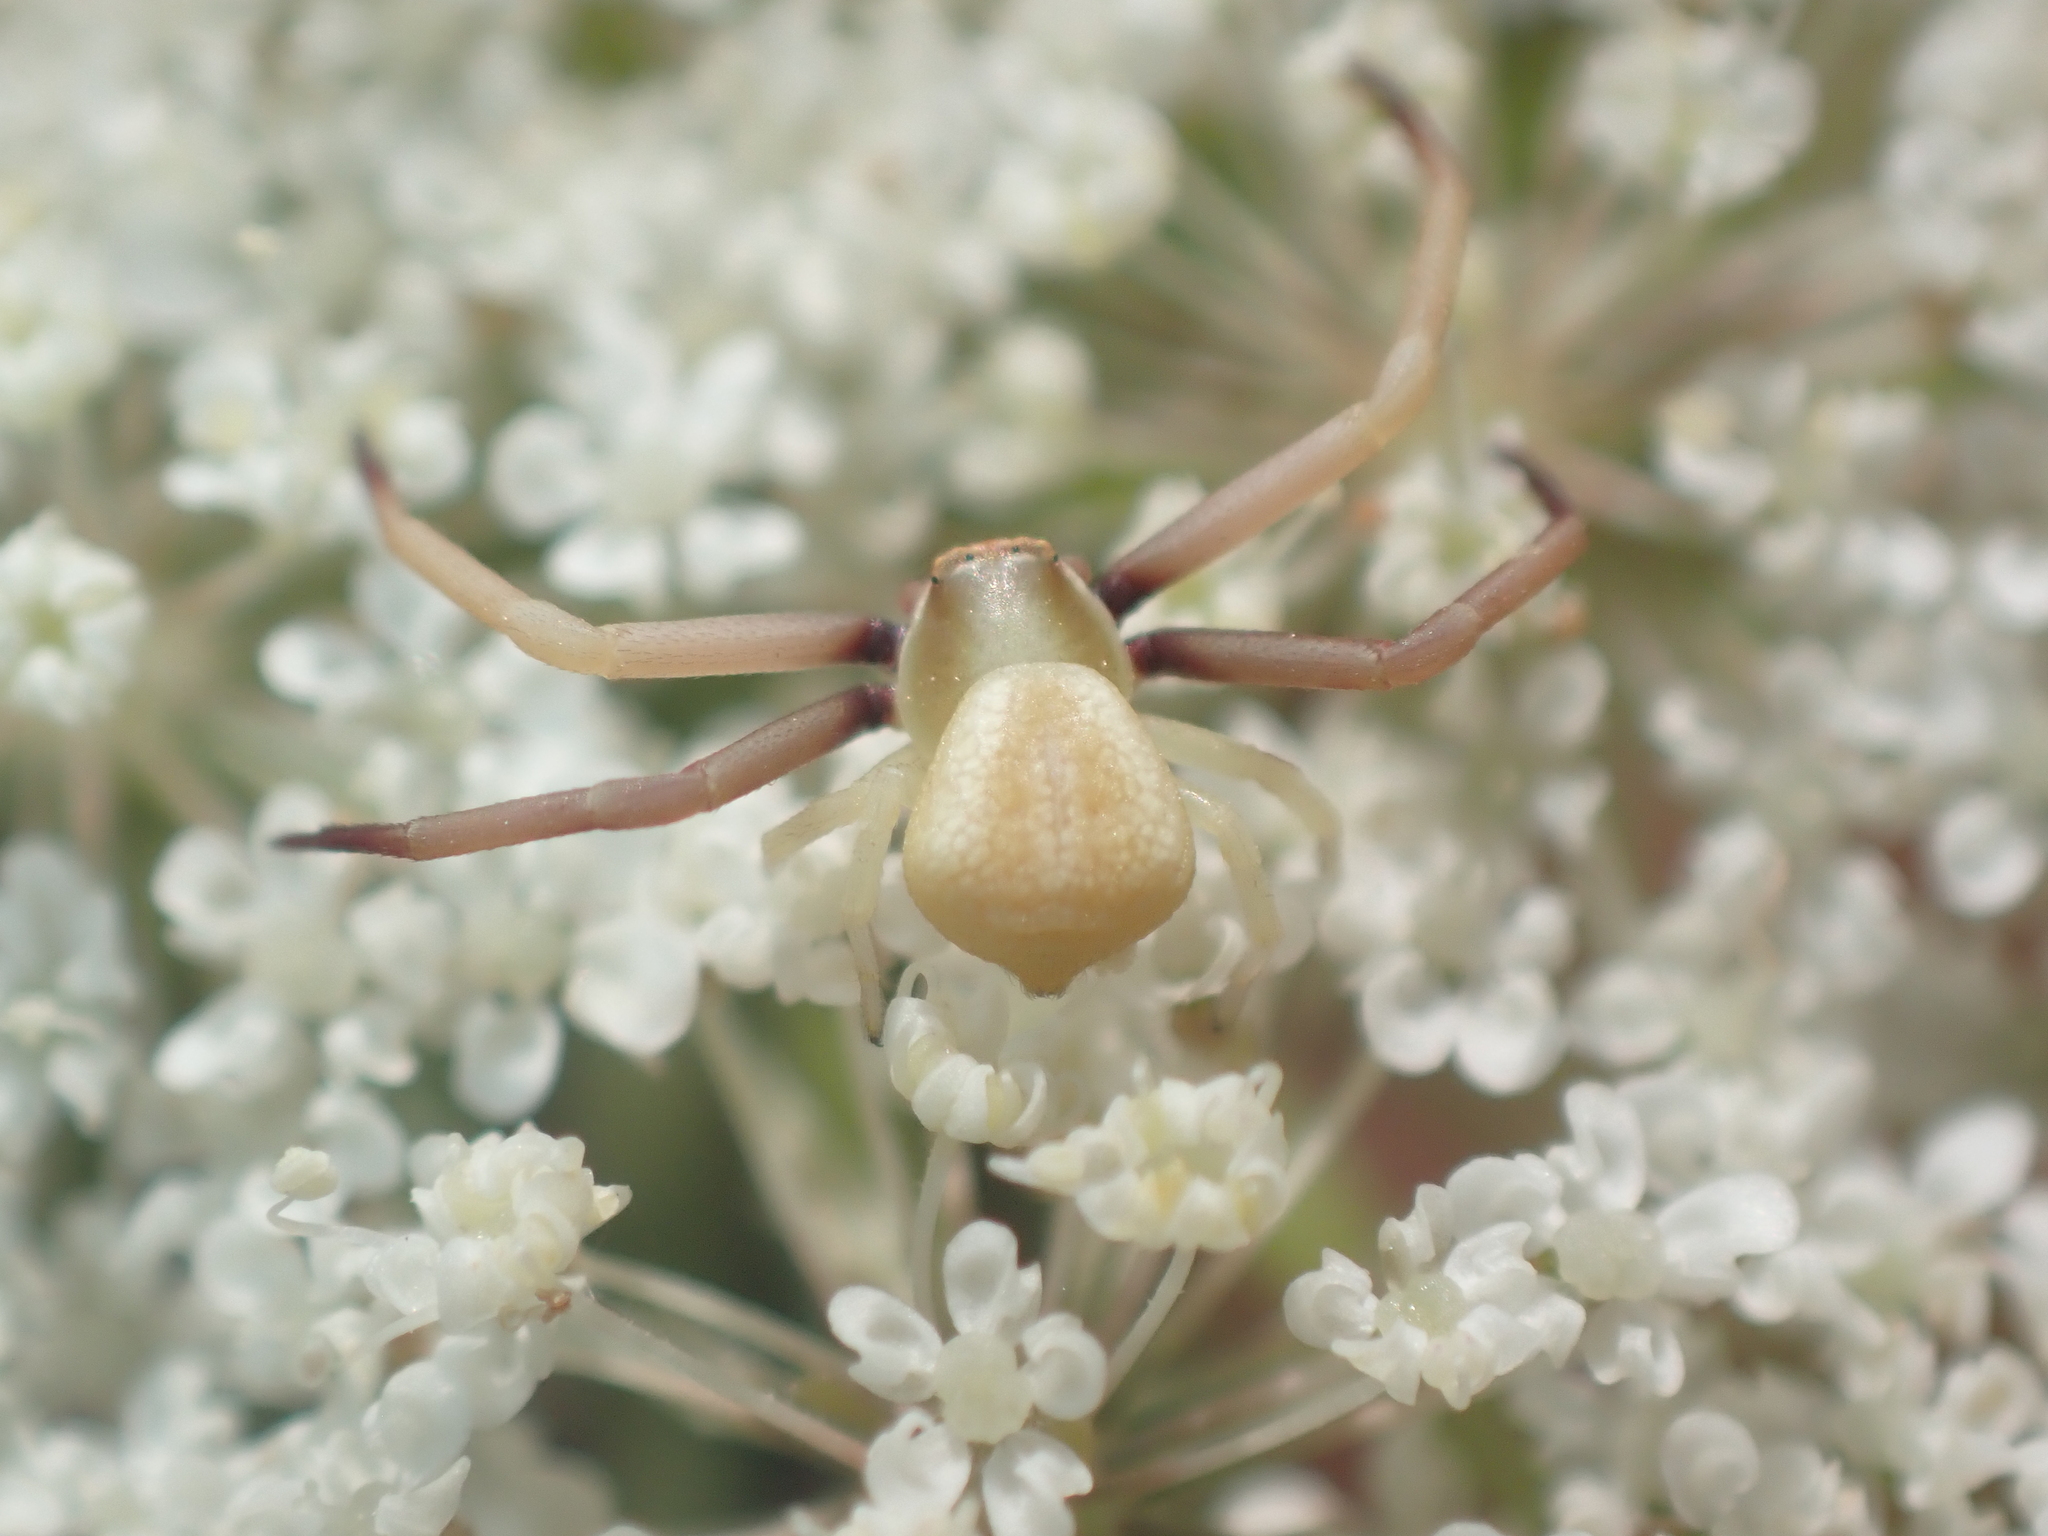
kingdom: Animalia
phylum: Arthropoda
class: Arachnida
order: Araneae
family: Thomisidae
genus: Misumenoides
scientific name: Misumenoides formosipes
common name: White-banded crab spider
